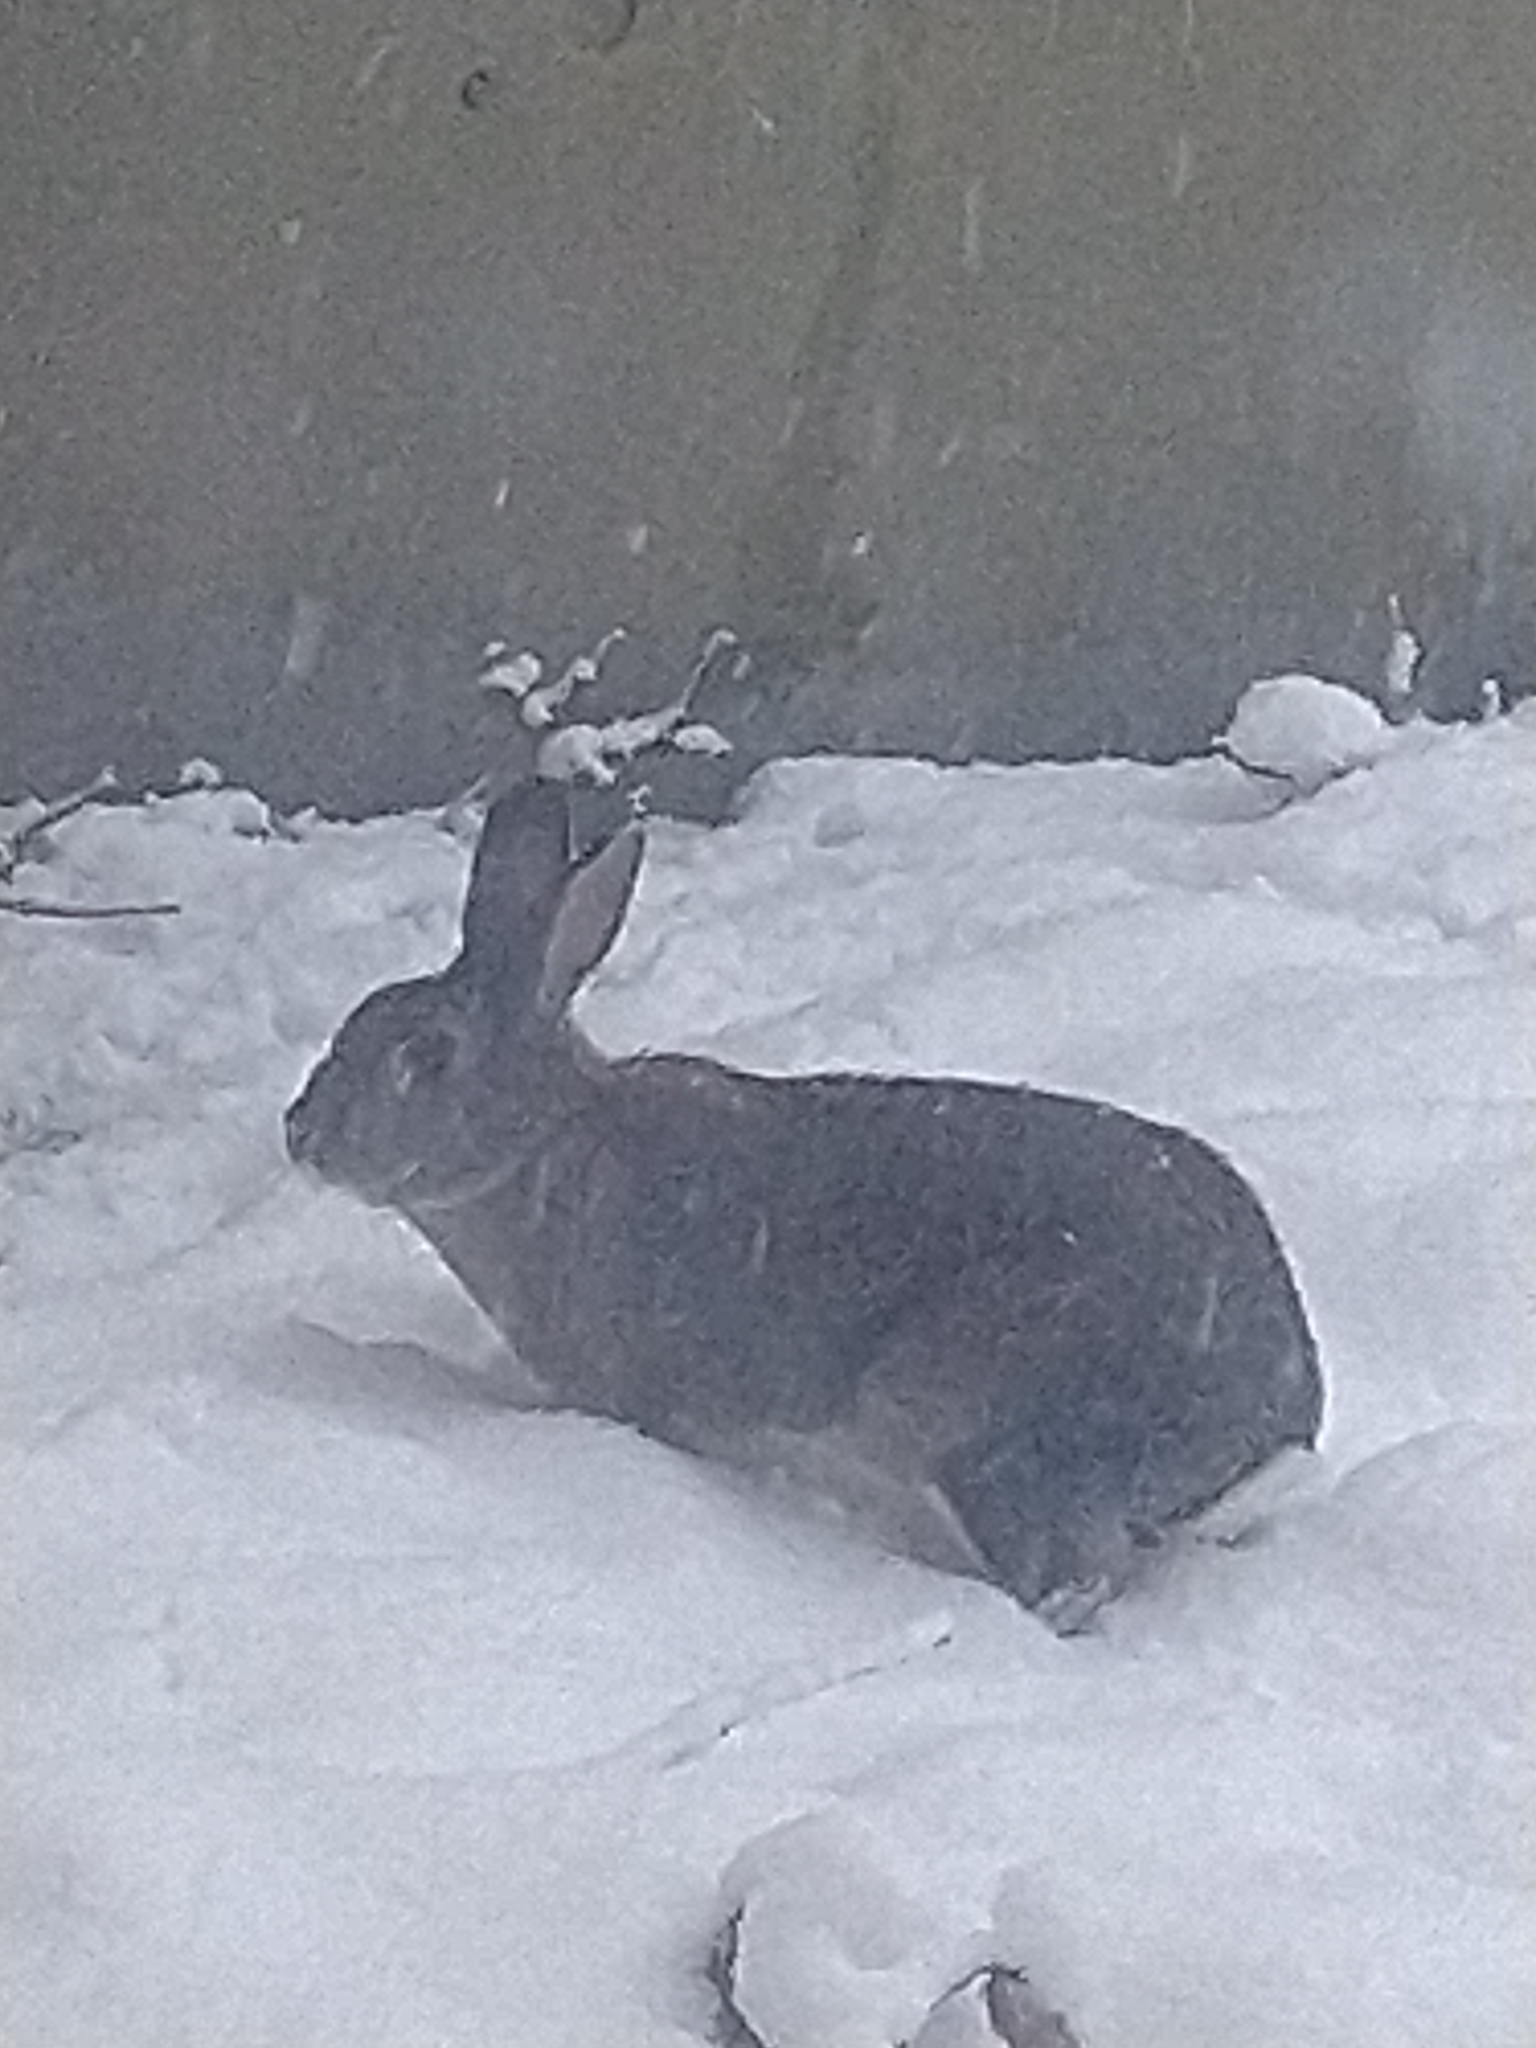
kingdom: Animalia
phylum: Chordata
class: Mammalia
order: Lagomorpha
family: Leporidae
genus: Oryctolagus
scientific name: Oryctolagus cuniculus
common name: European rabbit
